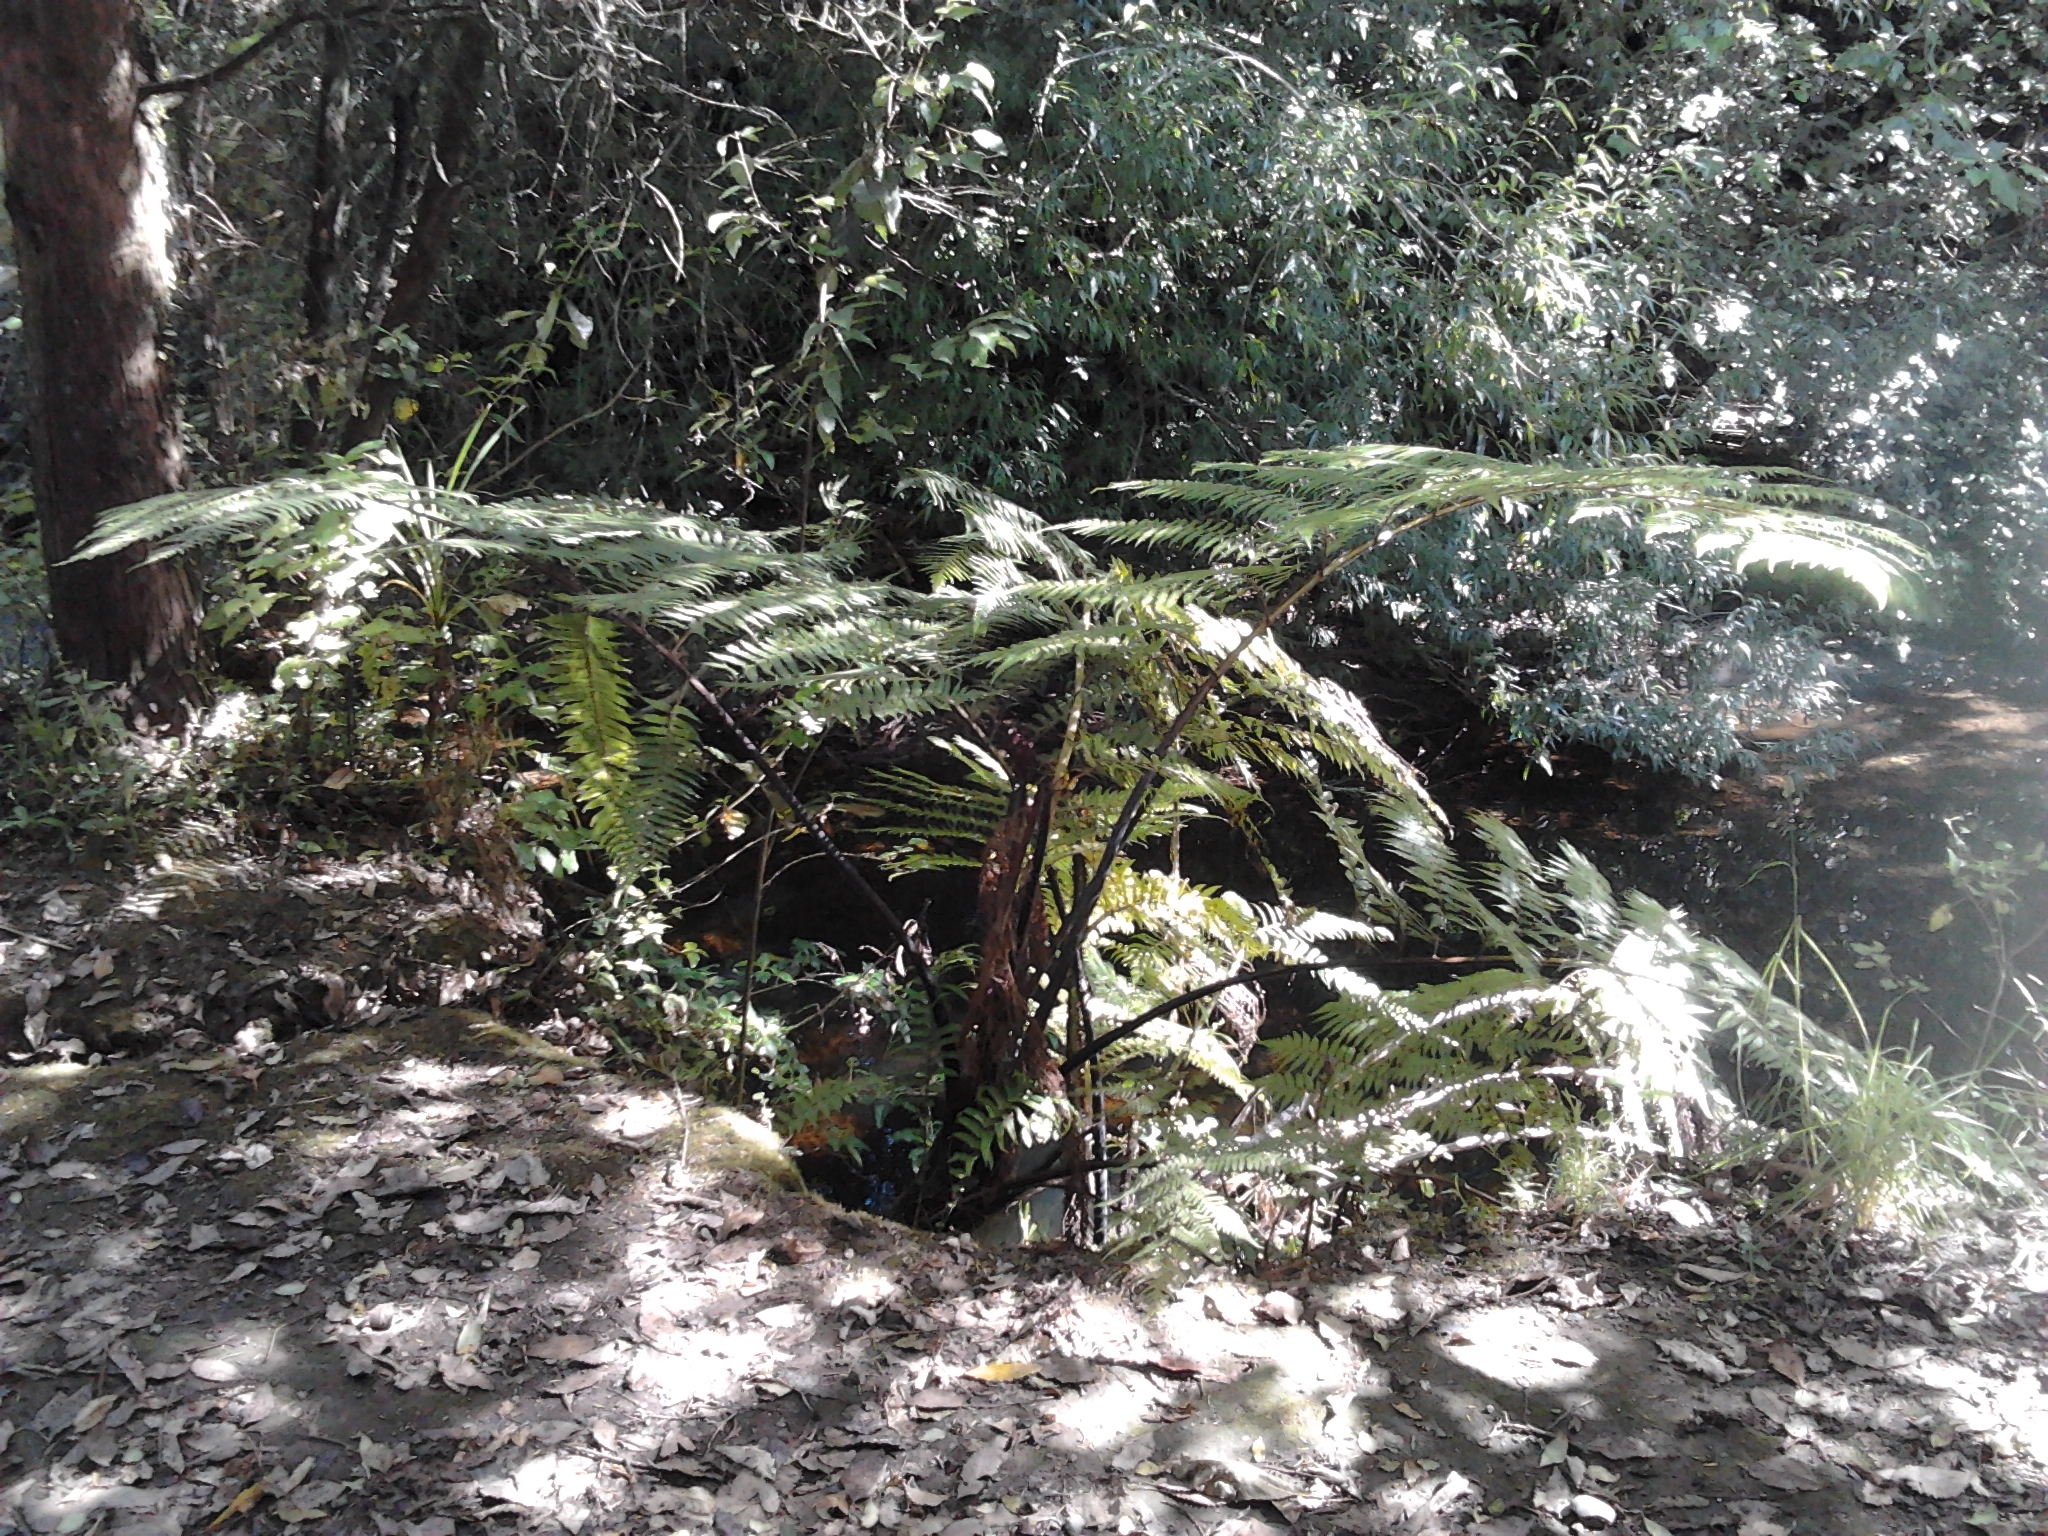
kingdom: Plantae
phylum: Tracheophyta
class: Polypodiopsida
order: Cyatheales
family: Cyatheaceae
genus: Sphaeropteris
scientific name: Sphaeropteris medullaris
